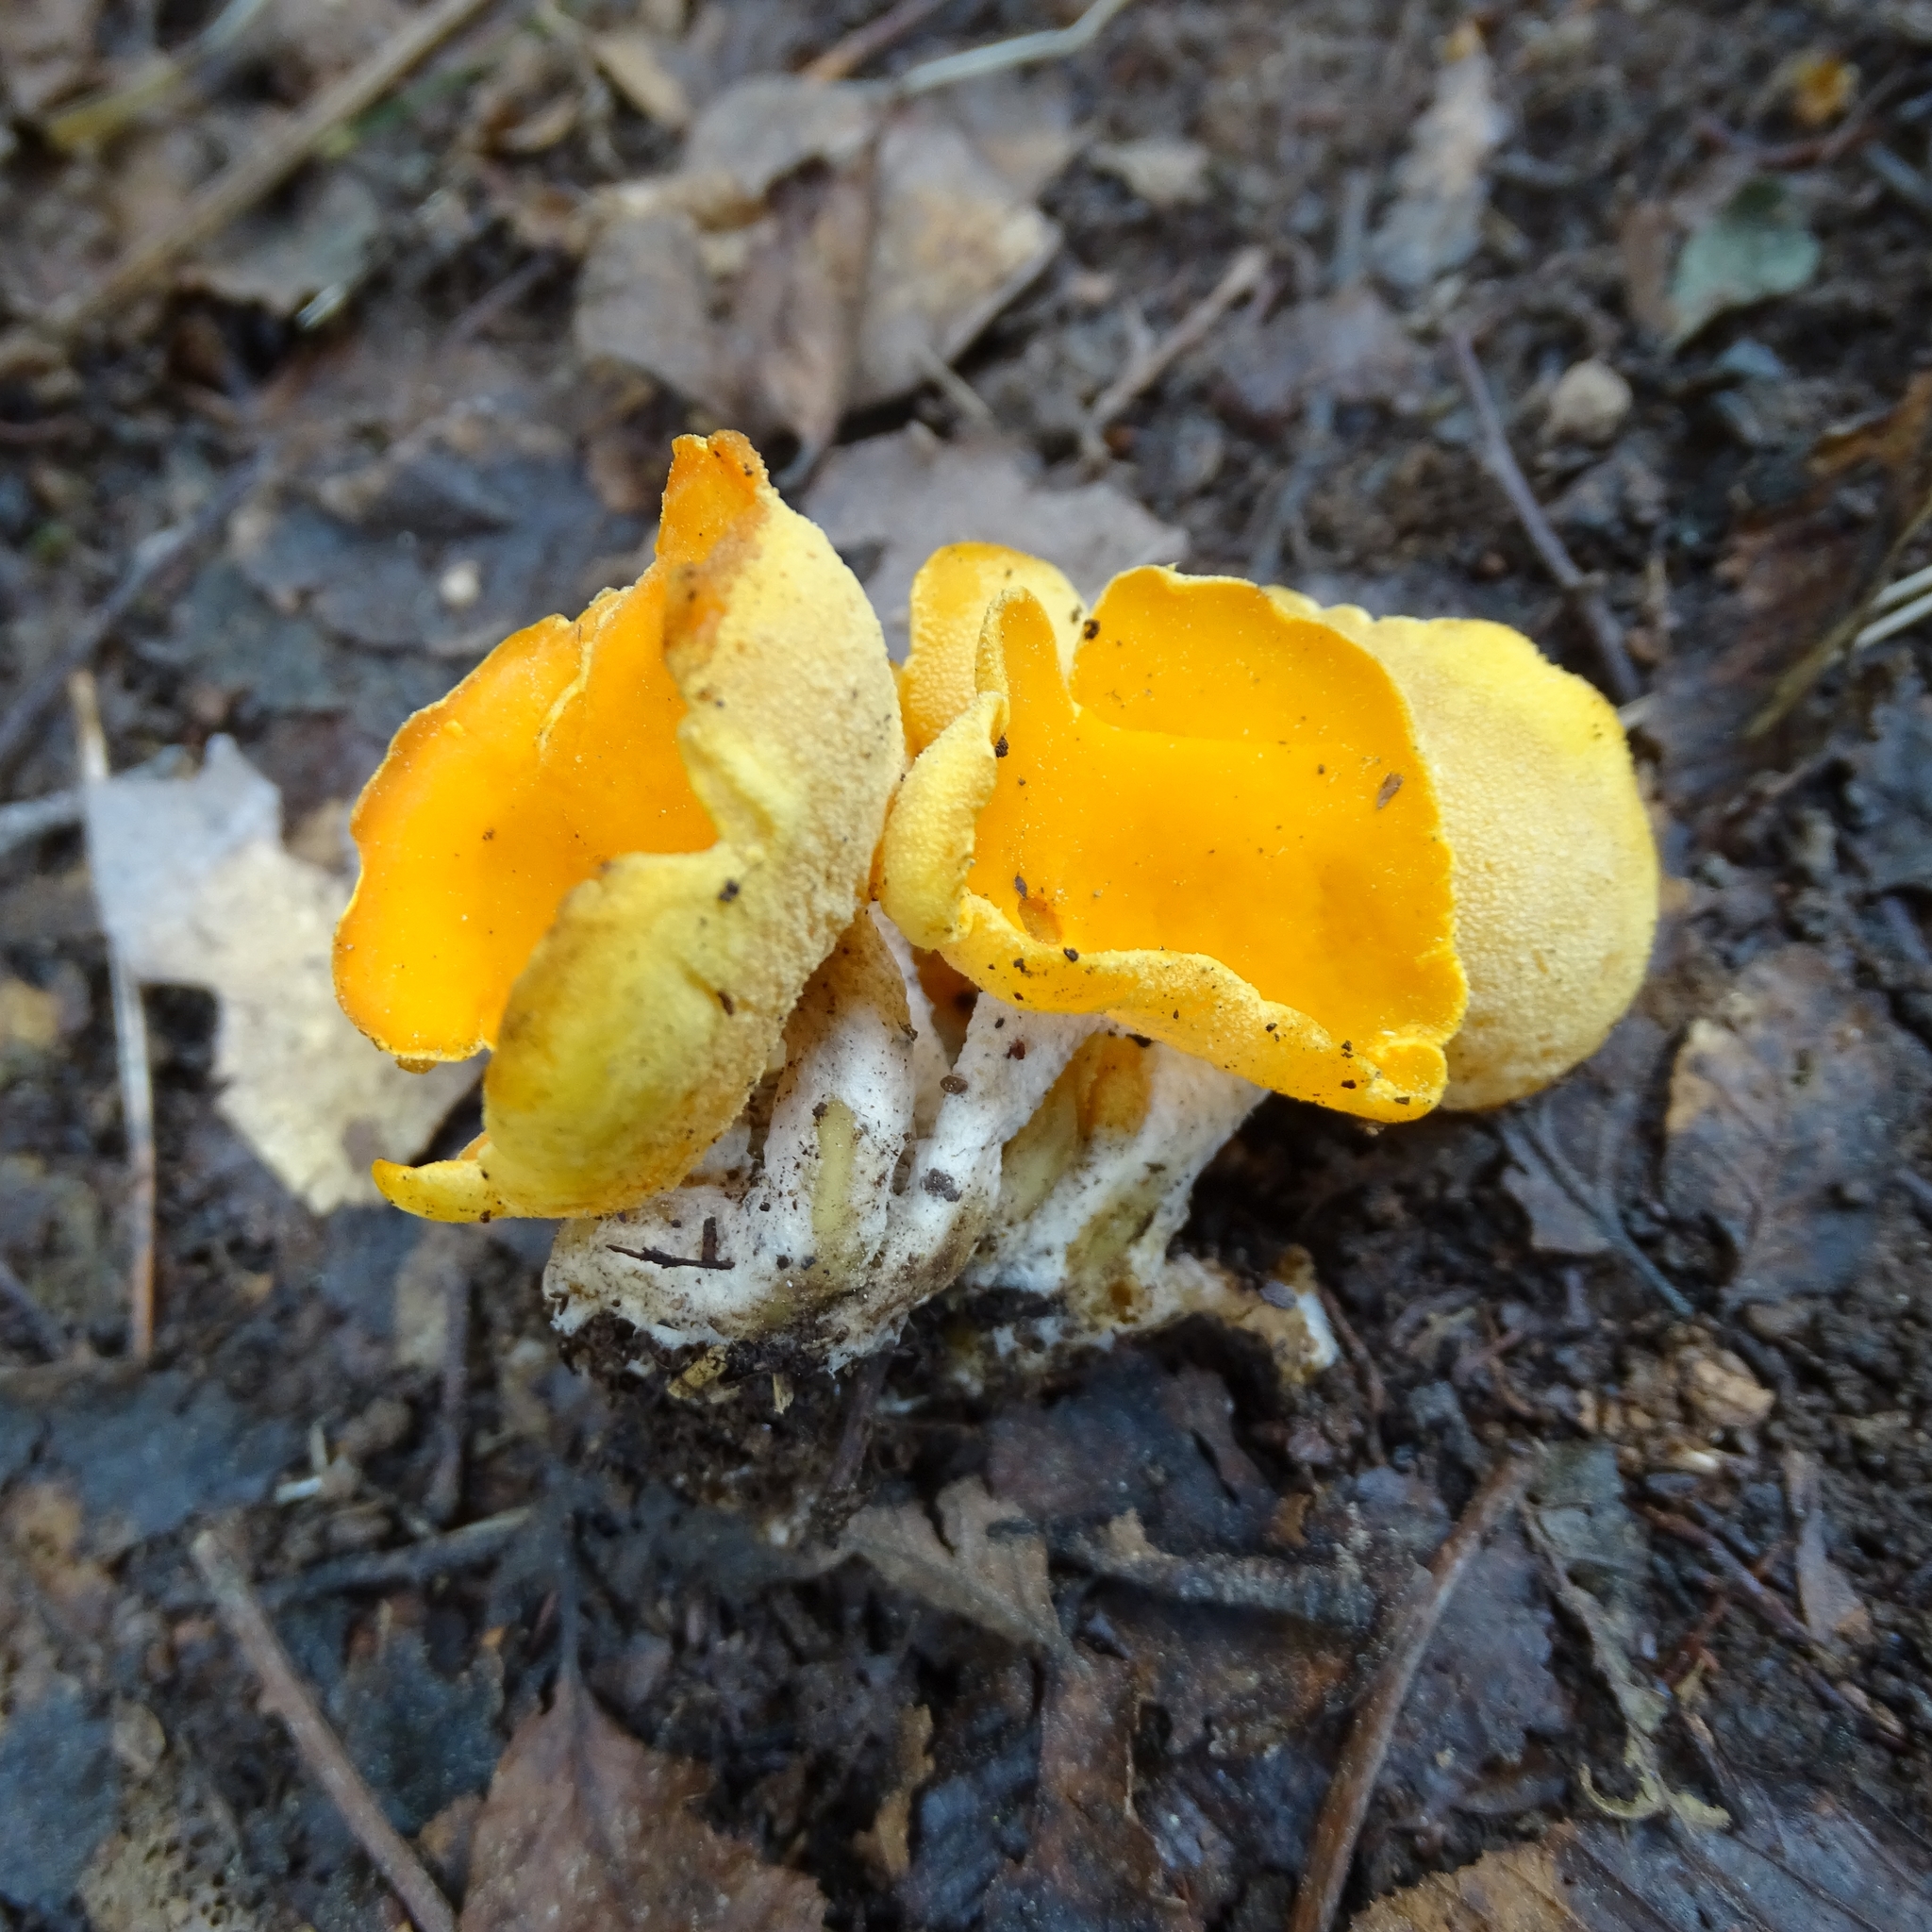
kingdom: Fungi
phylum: Ascomycota
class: Pezizomycetes
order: Pezizales
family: Pyronemataceae
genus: Sowerbyella
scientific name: Sowerbyella rhenana
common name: Stalked orange peel fungus
